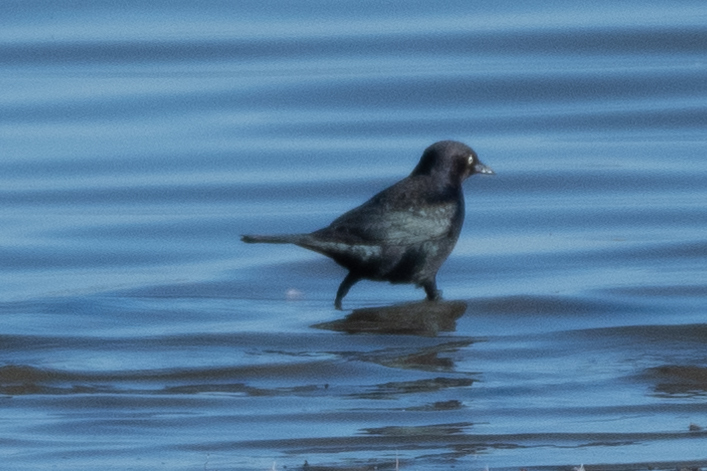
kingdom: Animalia
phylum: Chordata
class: Aves
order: Passeriformes
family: Icteridae
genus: Euphagus
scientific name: Euphagus cyanocephalus
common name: Brewer's blackbird
